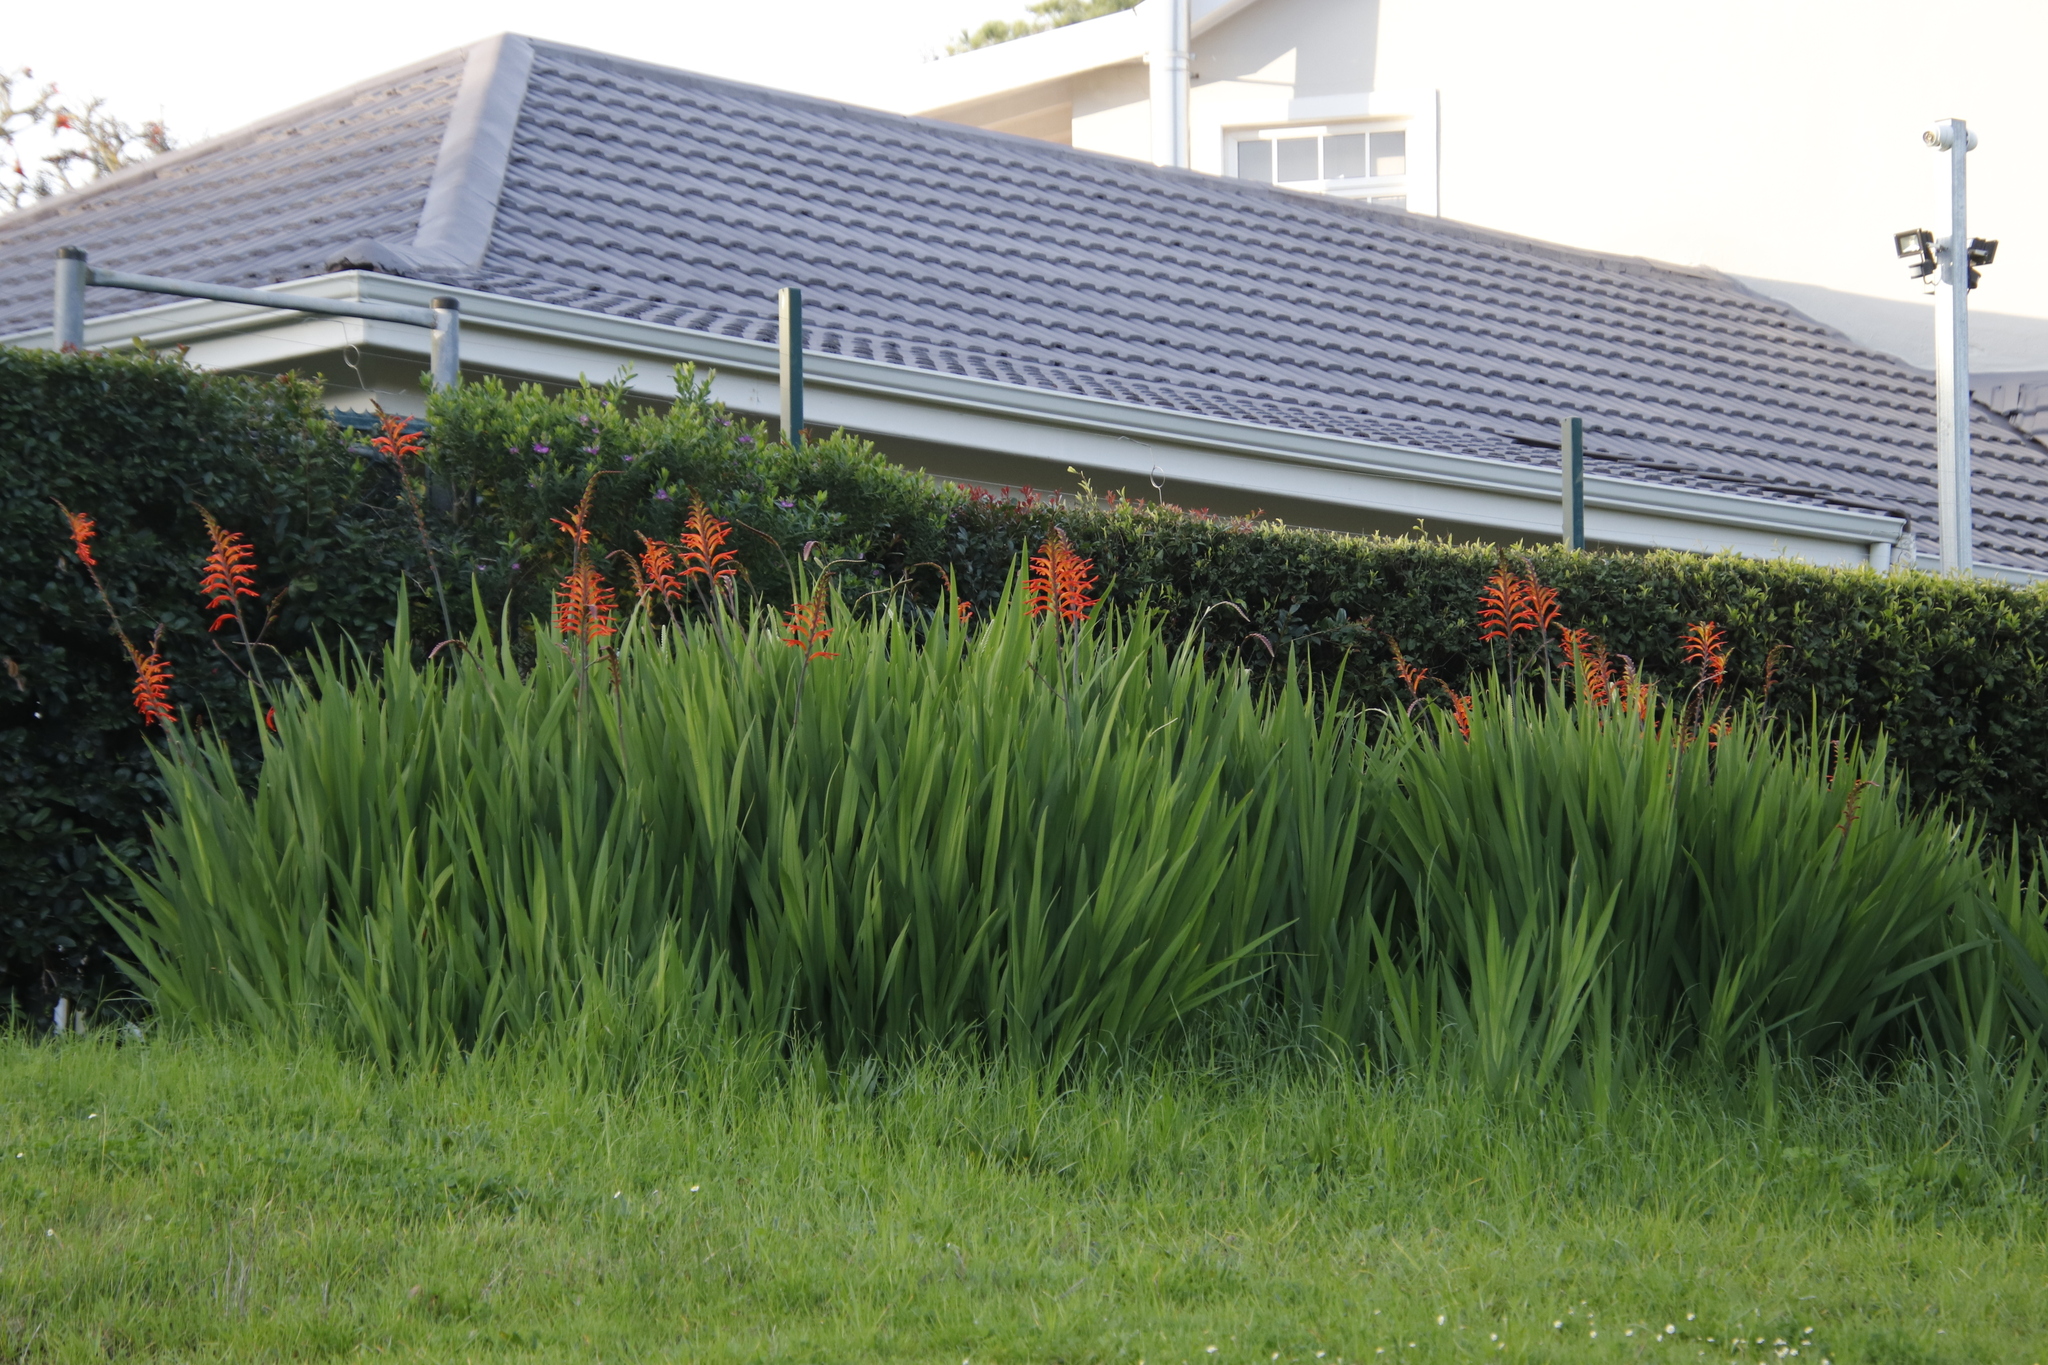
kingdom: Plantae
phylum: Tracheophyta
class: Liliopsida
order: Asparagales
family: Iridaceae
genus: Chasmanthe
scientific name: Chasmanthe floribunda
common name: African cornflag
